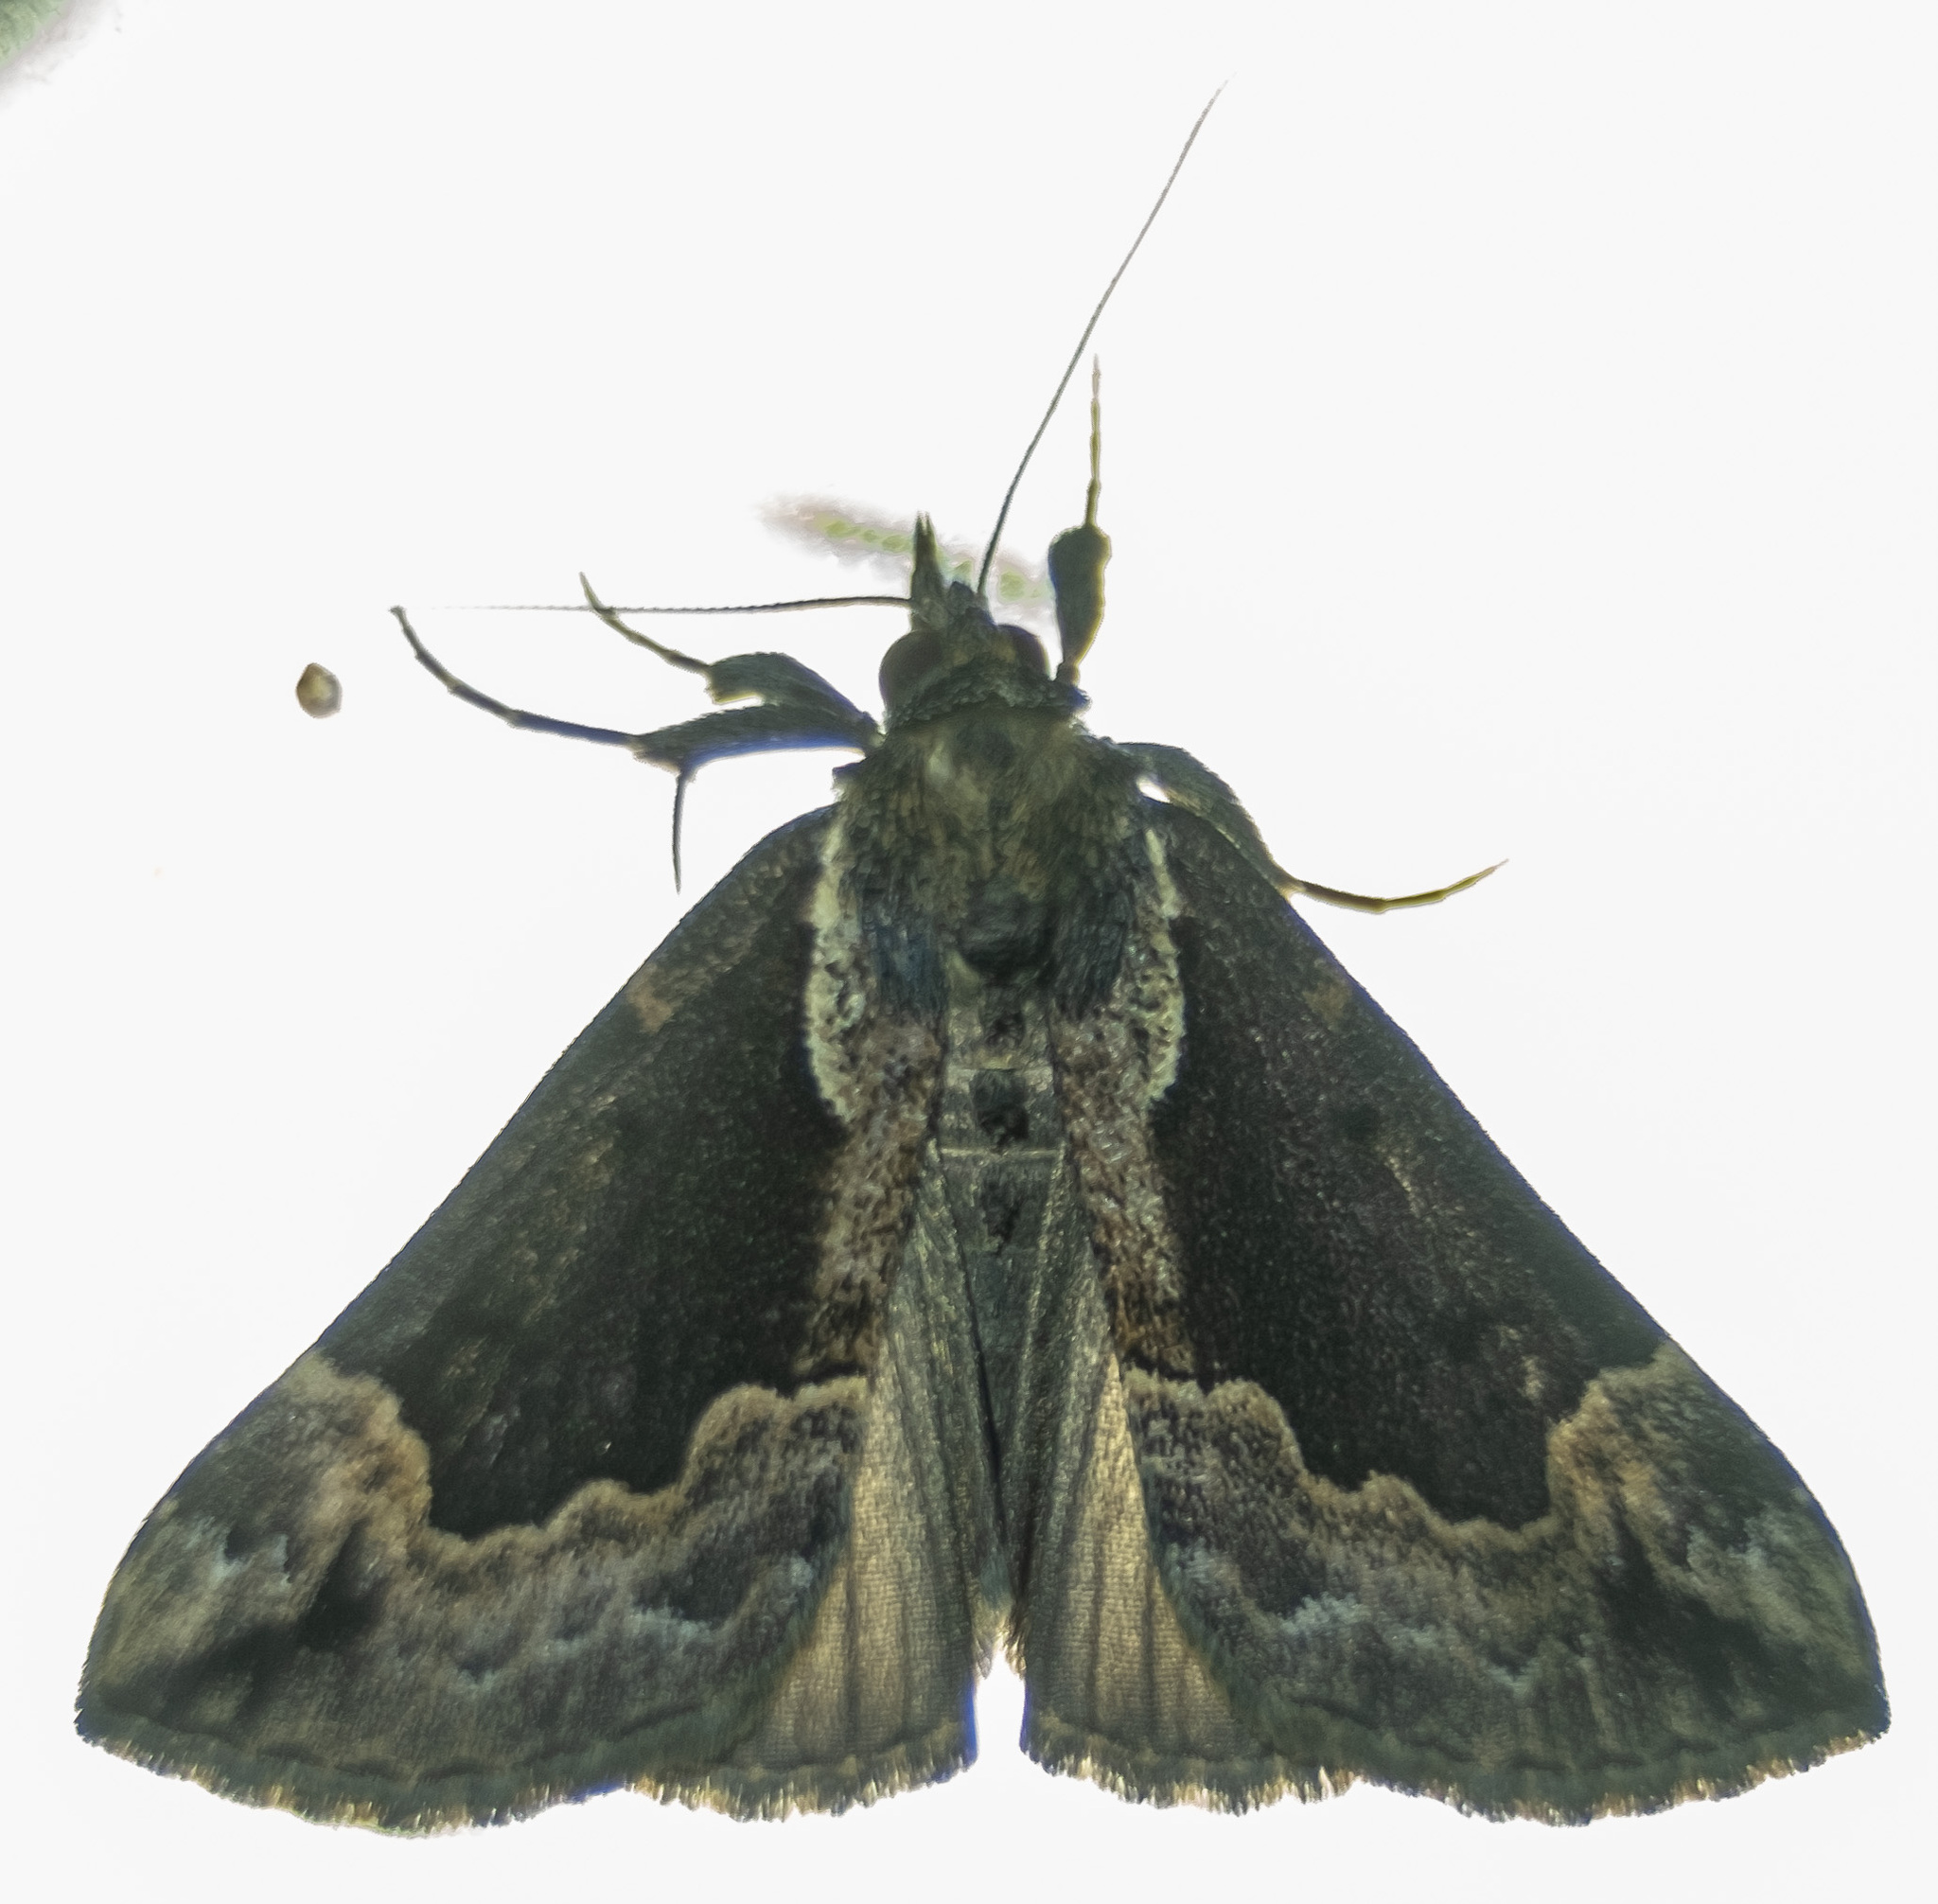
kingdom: Animalia
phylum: Arthropoda
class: Insecta
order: Lepidoptera
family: Erebidae
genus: Hypena
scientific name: Hypena baltimoralis
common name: Baltimore snout
